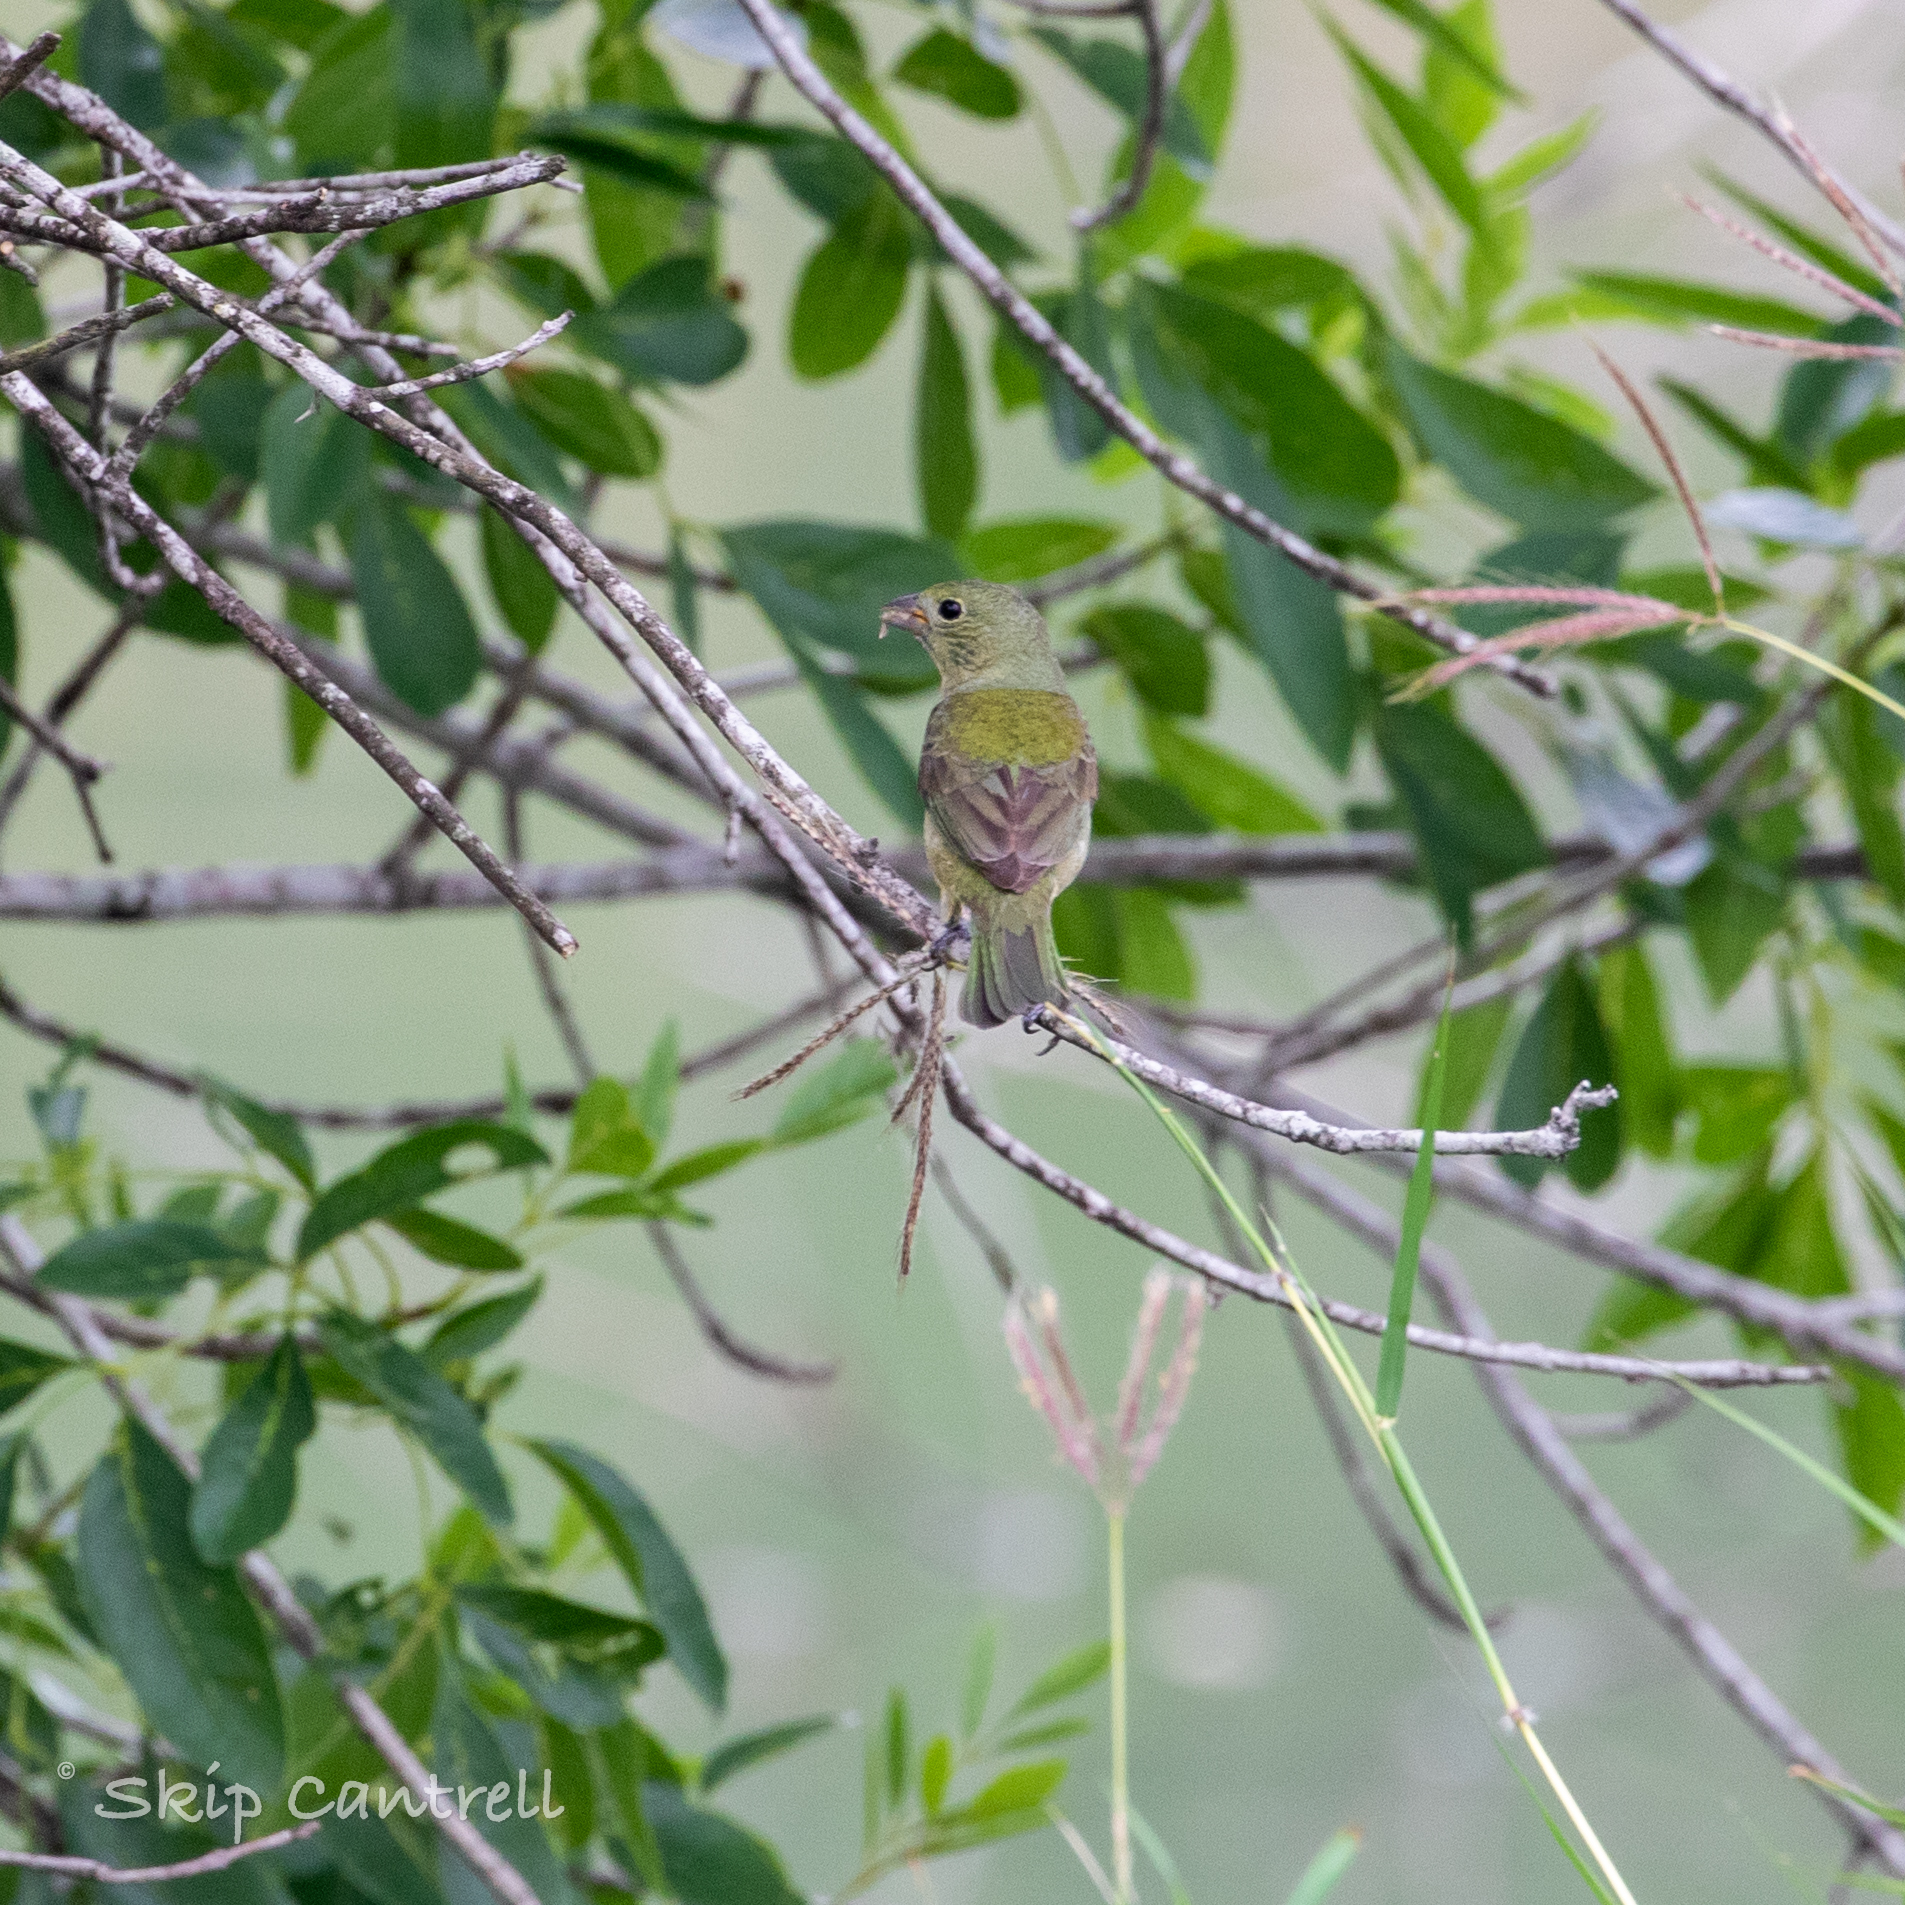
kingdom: Animalia
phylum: Chordata
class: Aves
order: Passeriformes
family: Cardinalidae
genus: Passerina
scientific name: Passerina ciris
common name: Painted bunting
